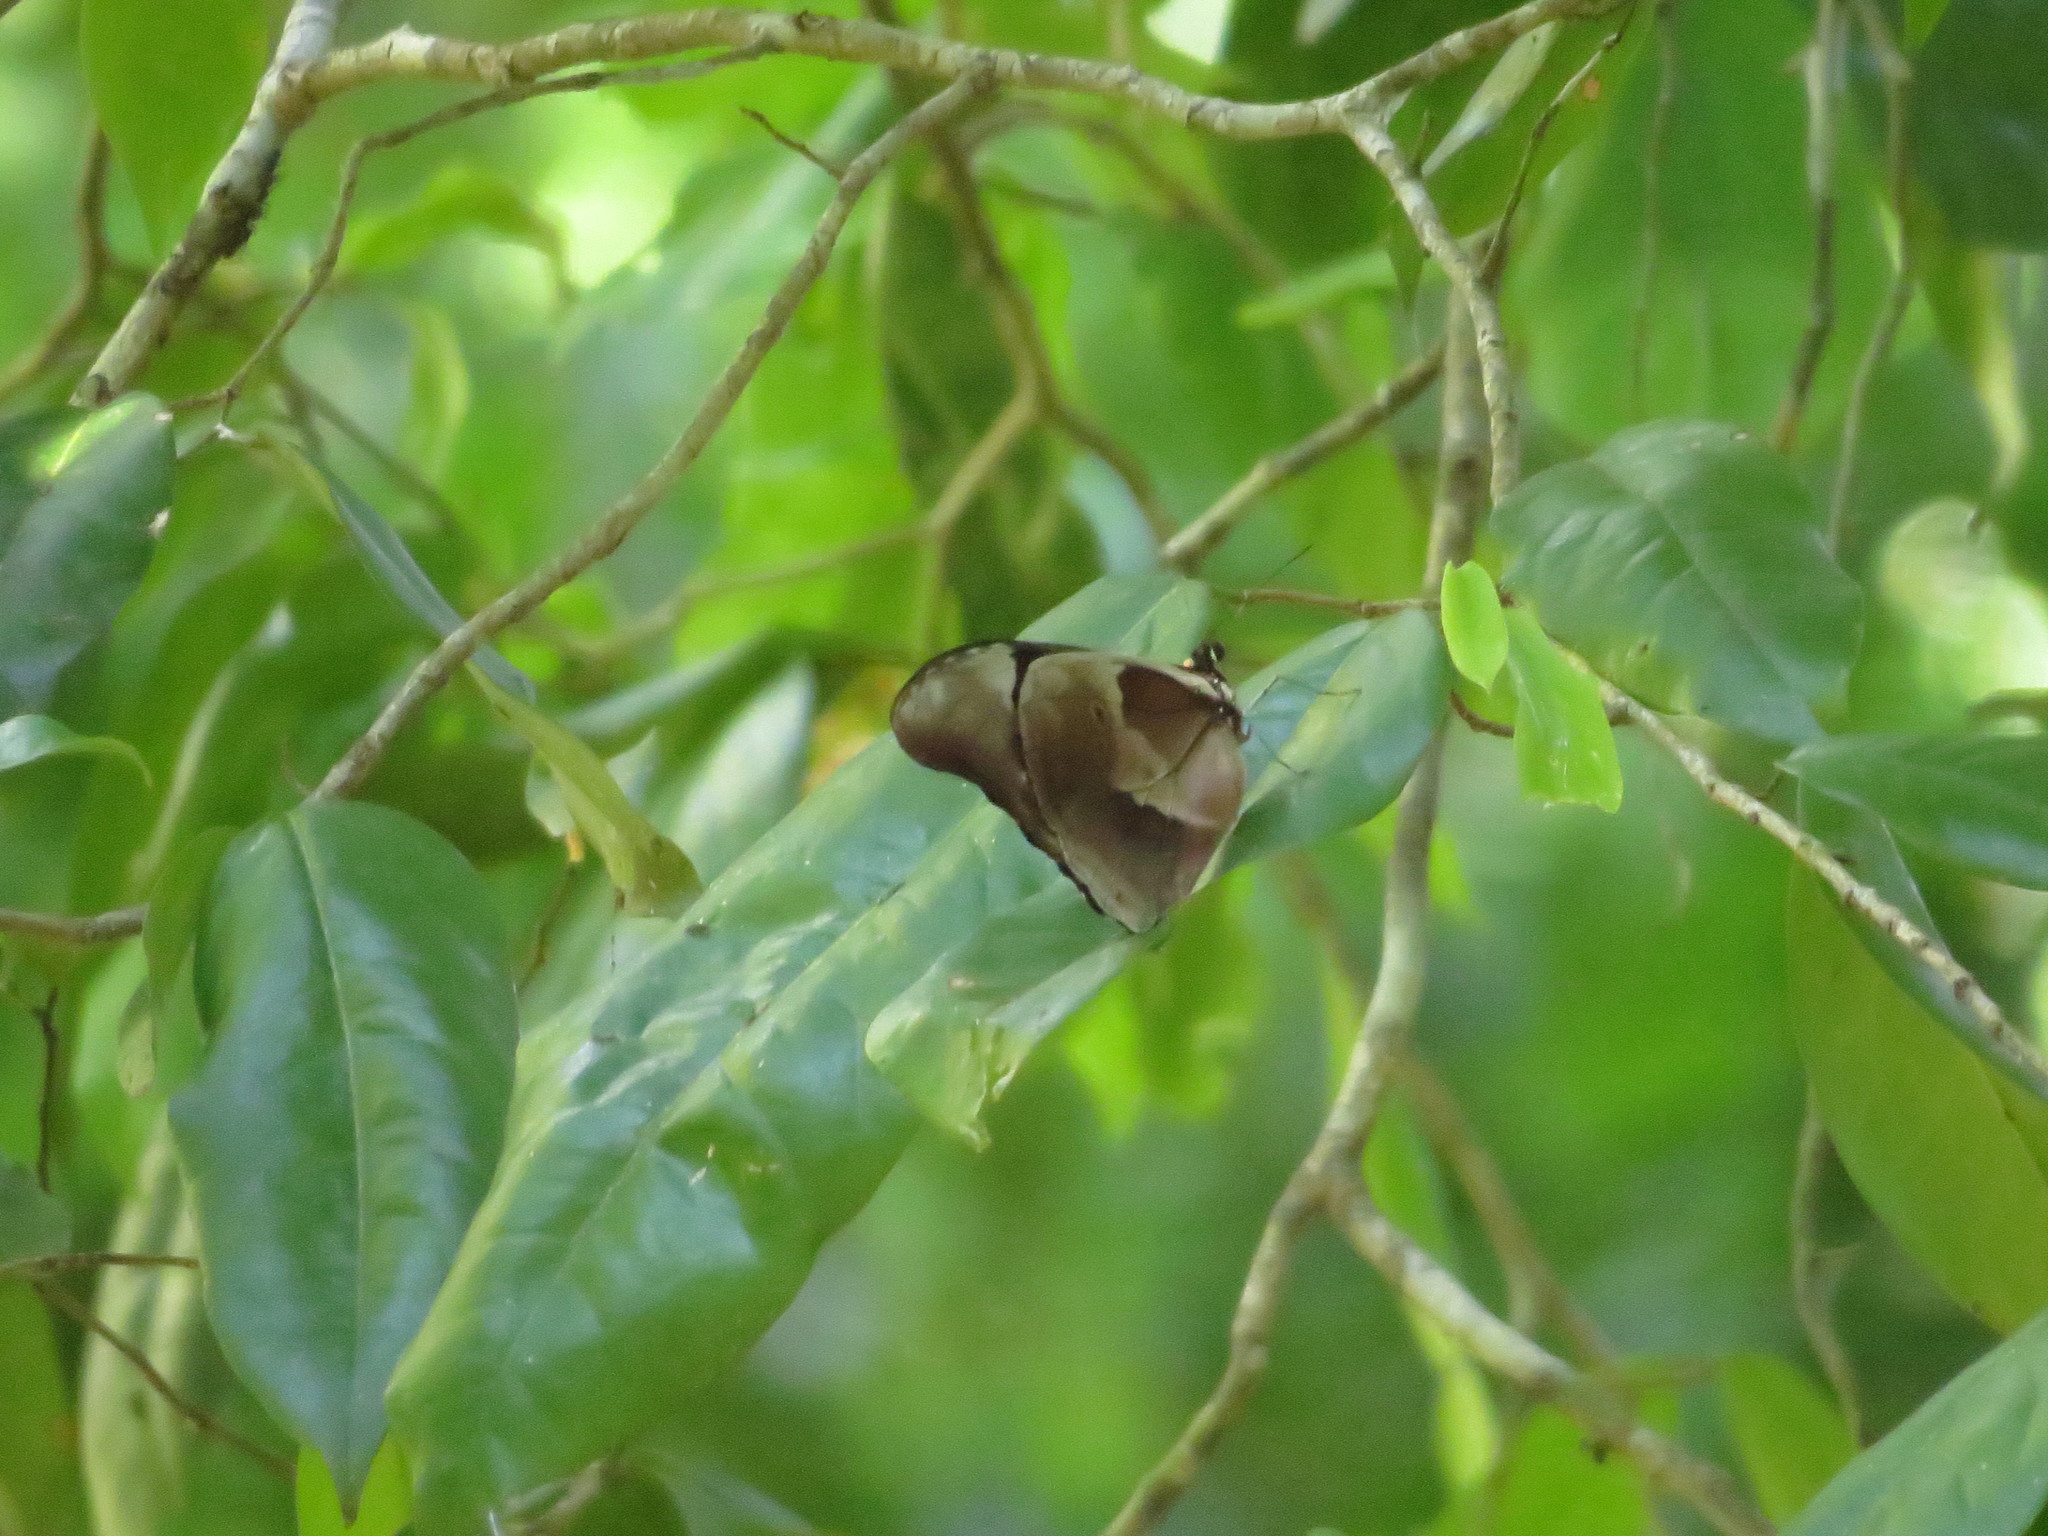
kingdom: Animalia
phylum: Arthropoda
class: Insecta
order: Lepidoptera
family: Nymphalidae
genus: Morpho
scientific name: Morpho rhetenor
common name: Rhetenor blue morpho
